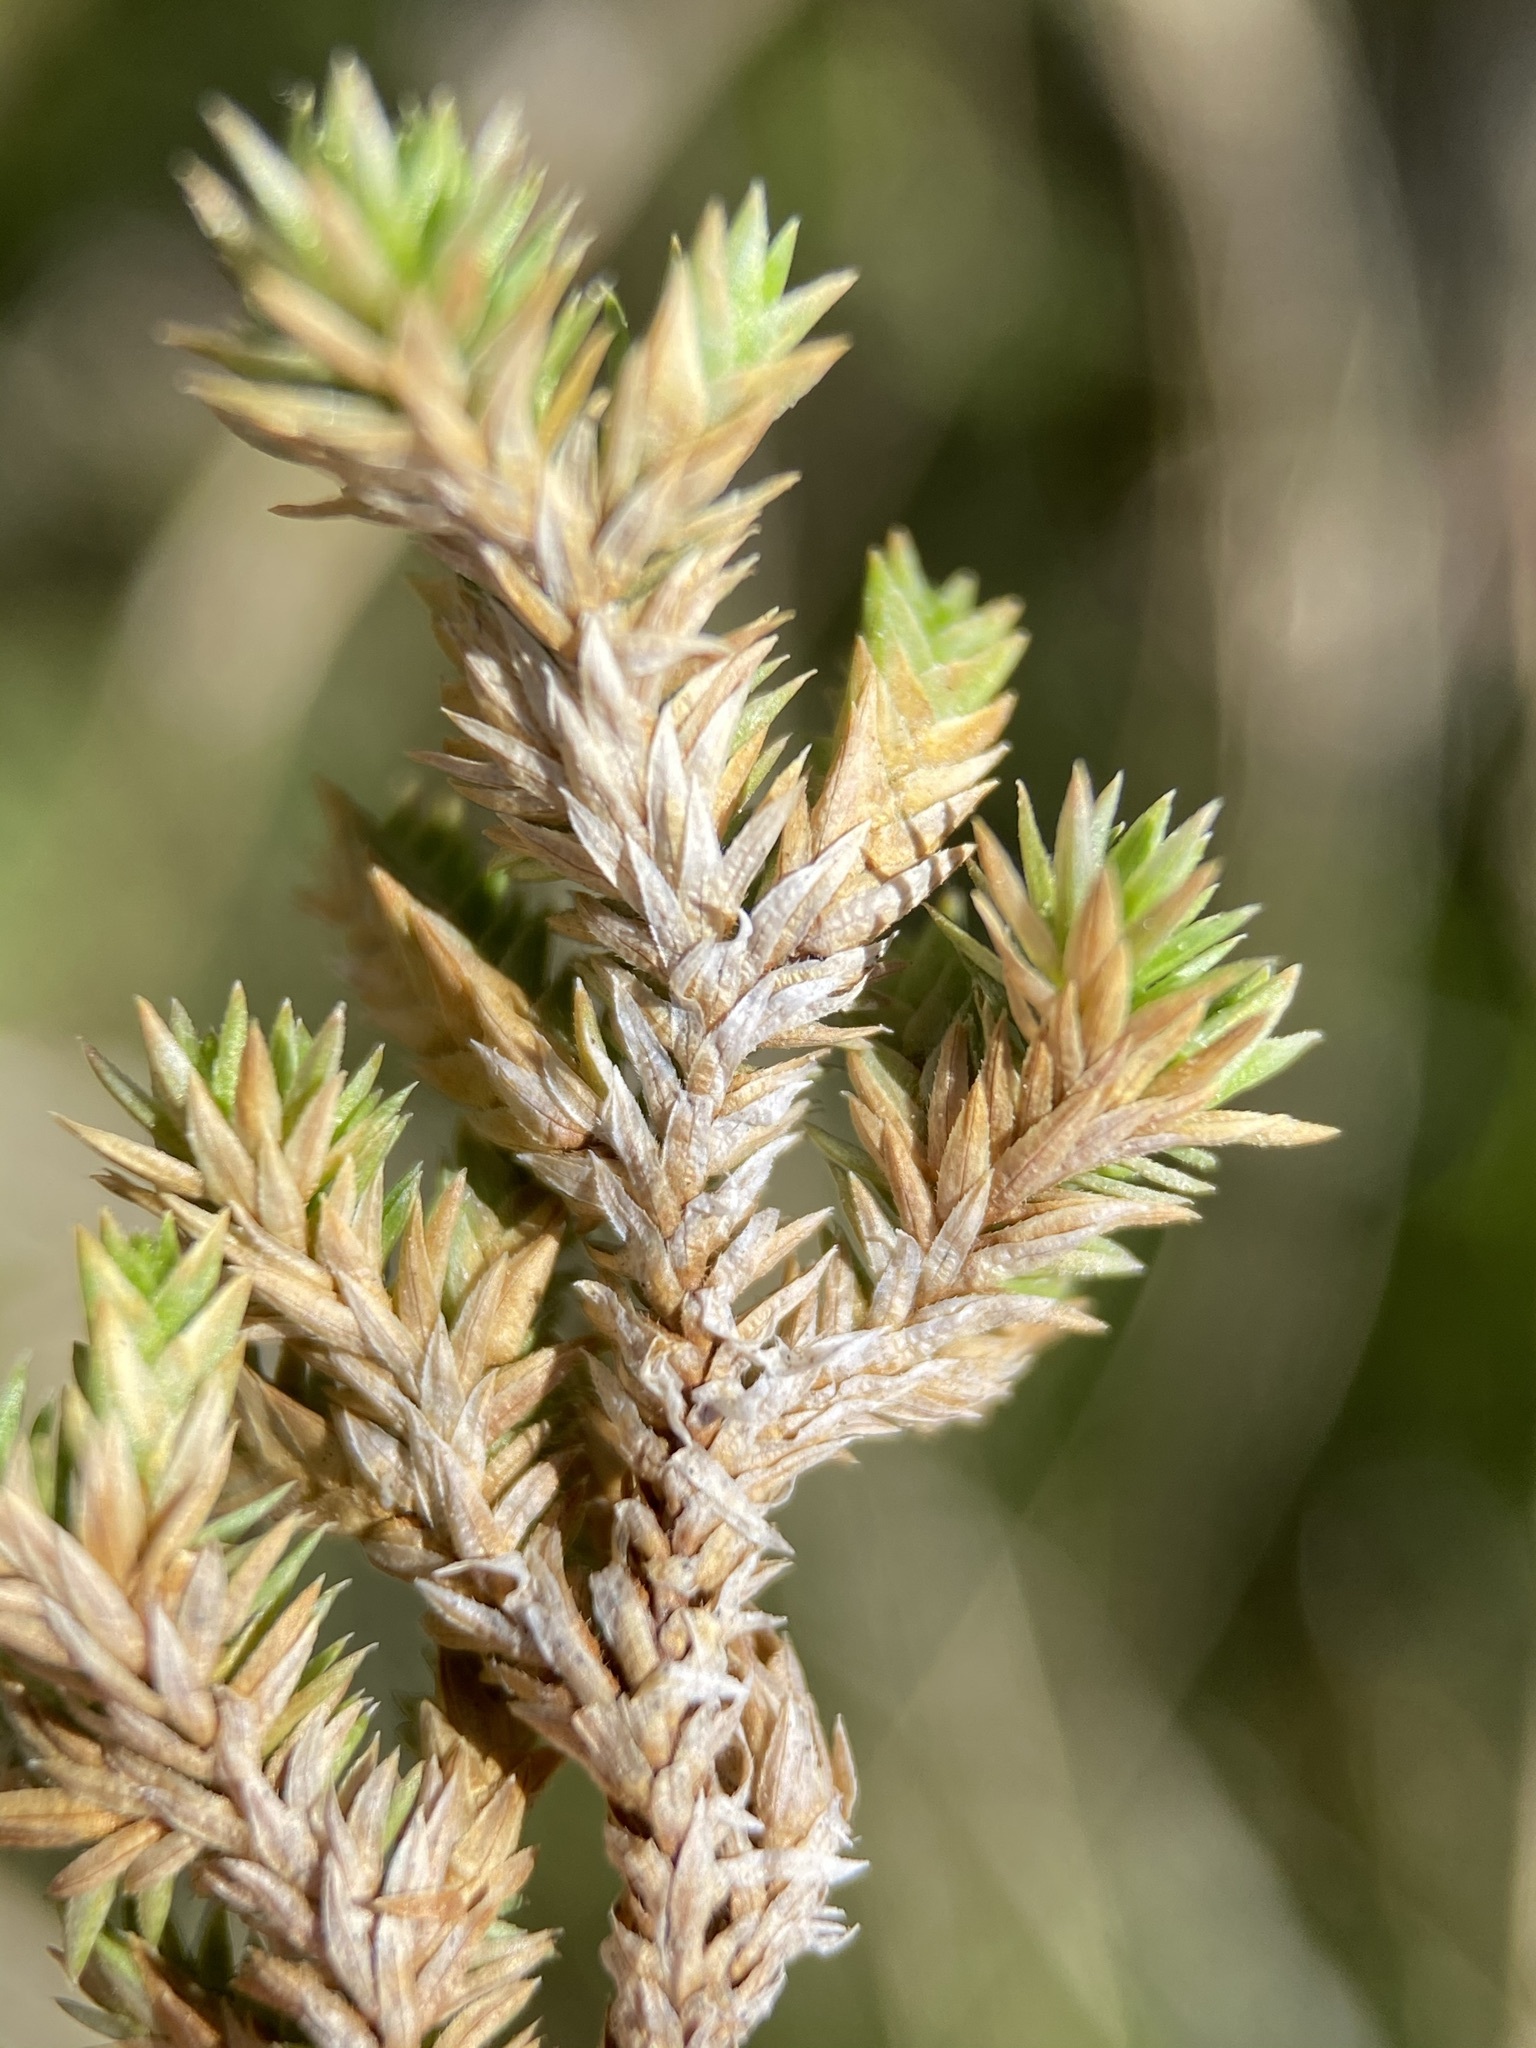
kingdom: Plantae
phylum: Tracheophyta
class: Lycopodiopsida
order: Selaginellales
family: Selaginellaceae
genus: Selaginella
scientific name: Selaginella arizonica
